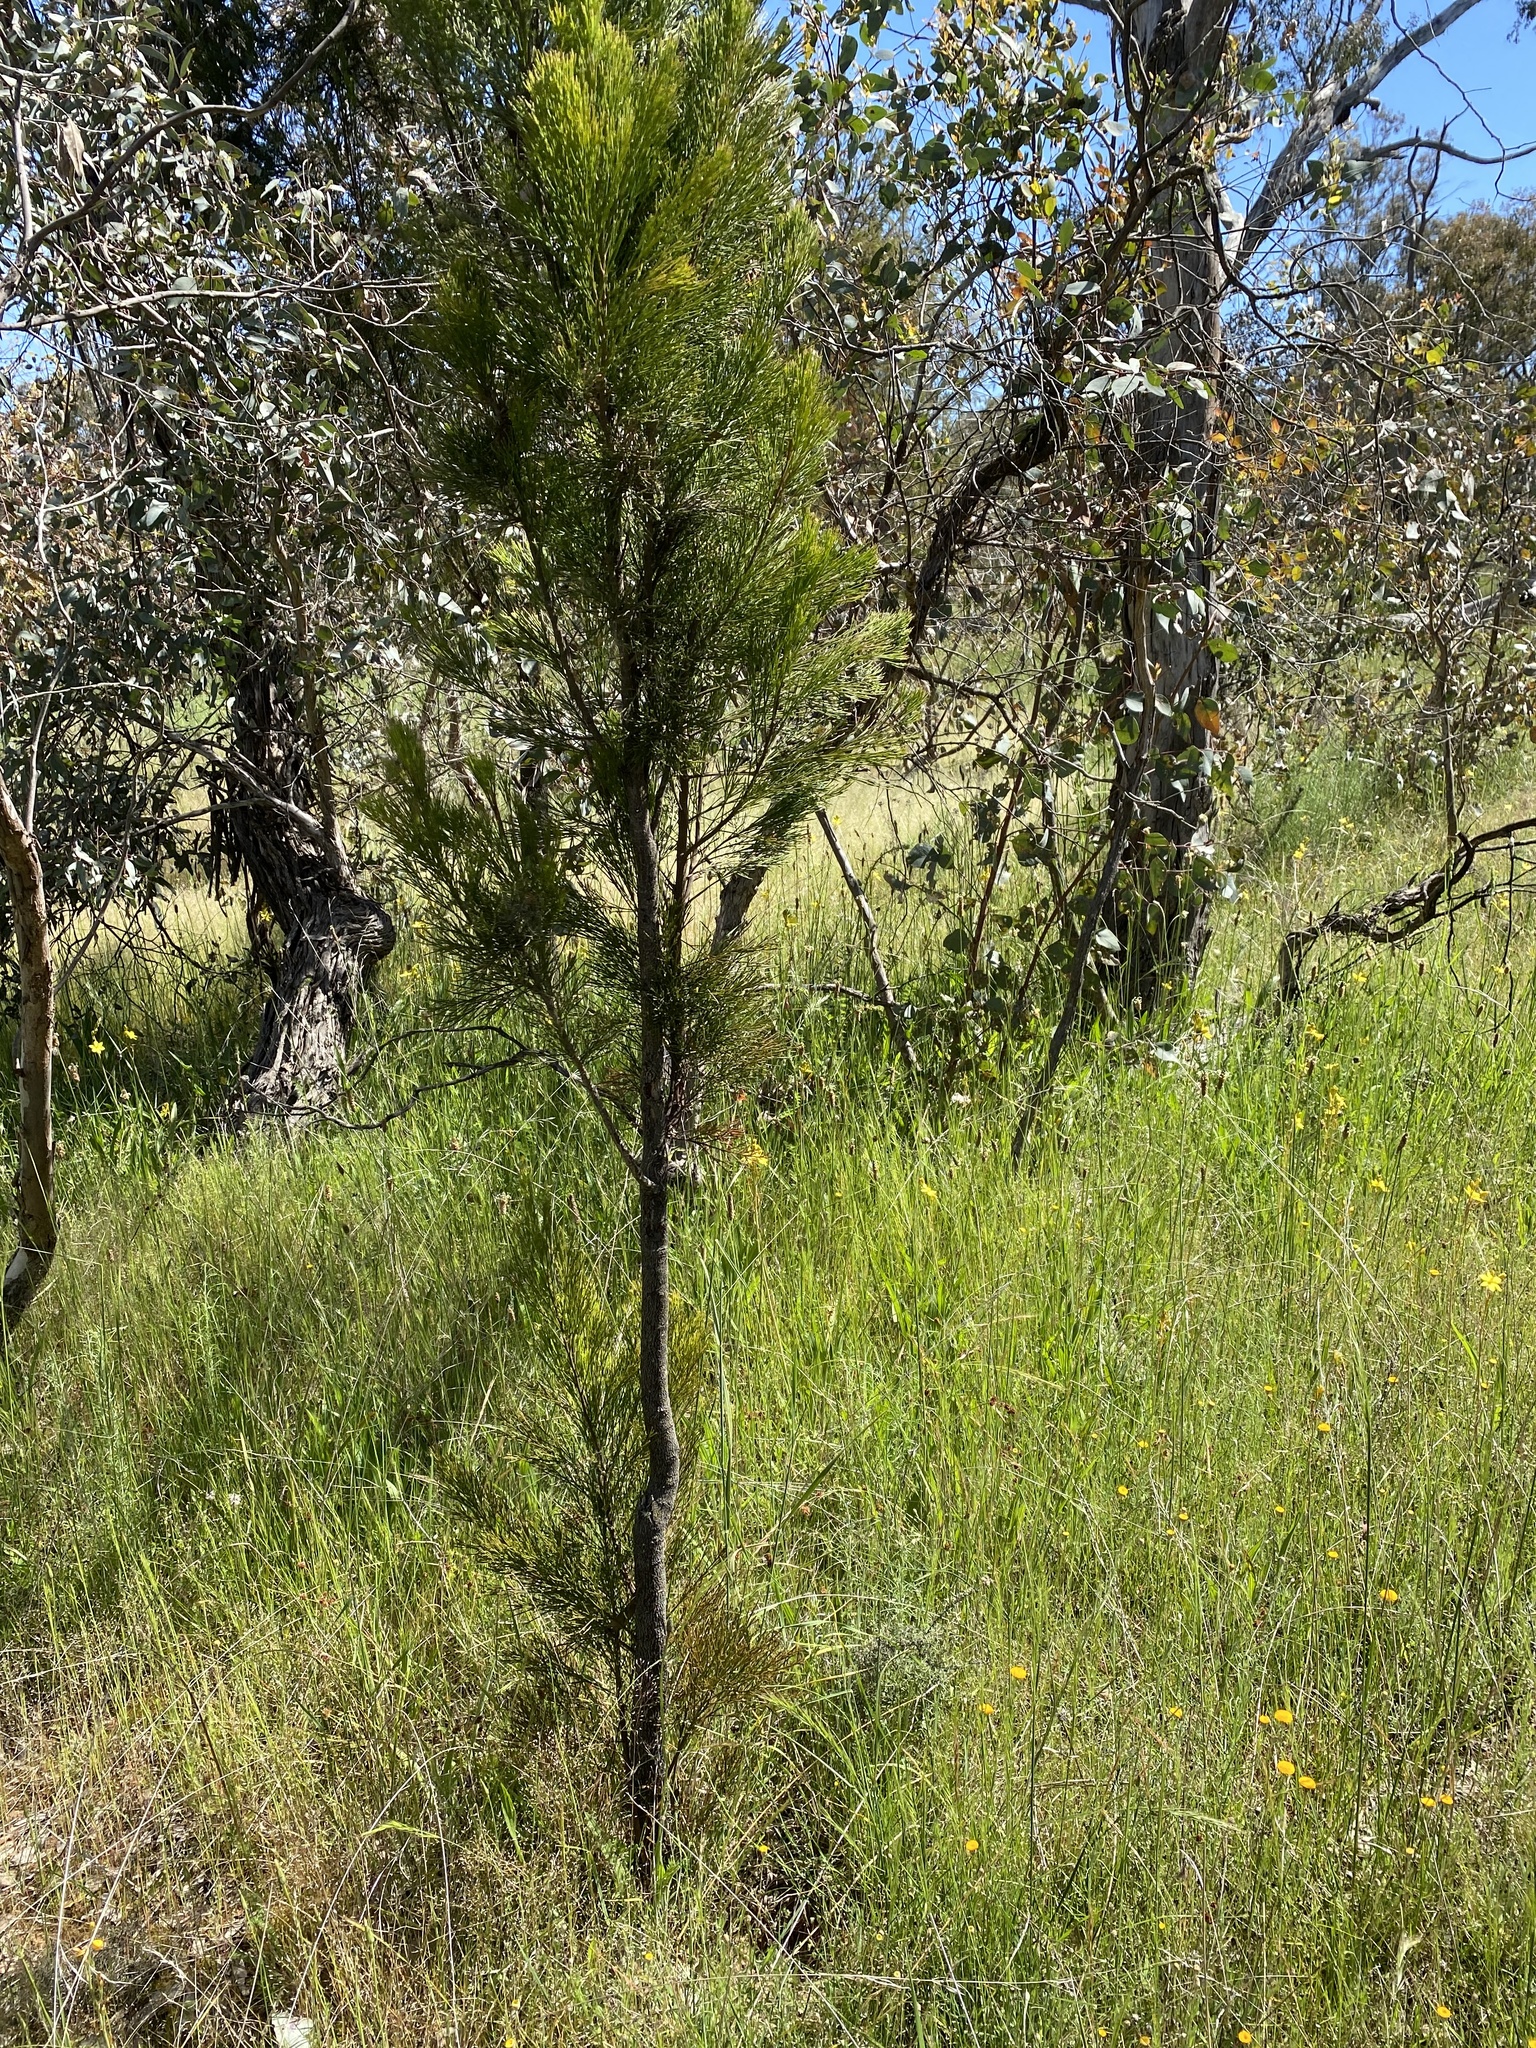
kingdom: Plantae
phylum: Tracheophyta
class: Magnoliopsida
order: Santalales
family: Santalaceae
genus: Exocarpos
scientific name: Exocarpos cupressiformis
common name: Cherry ballart
